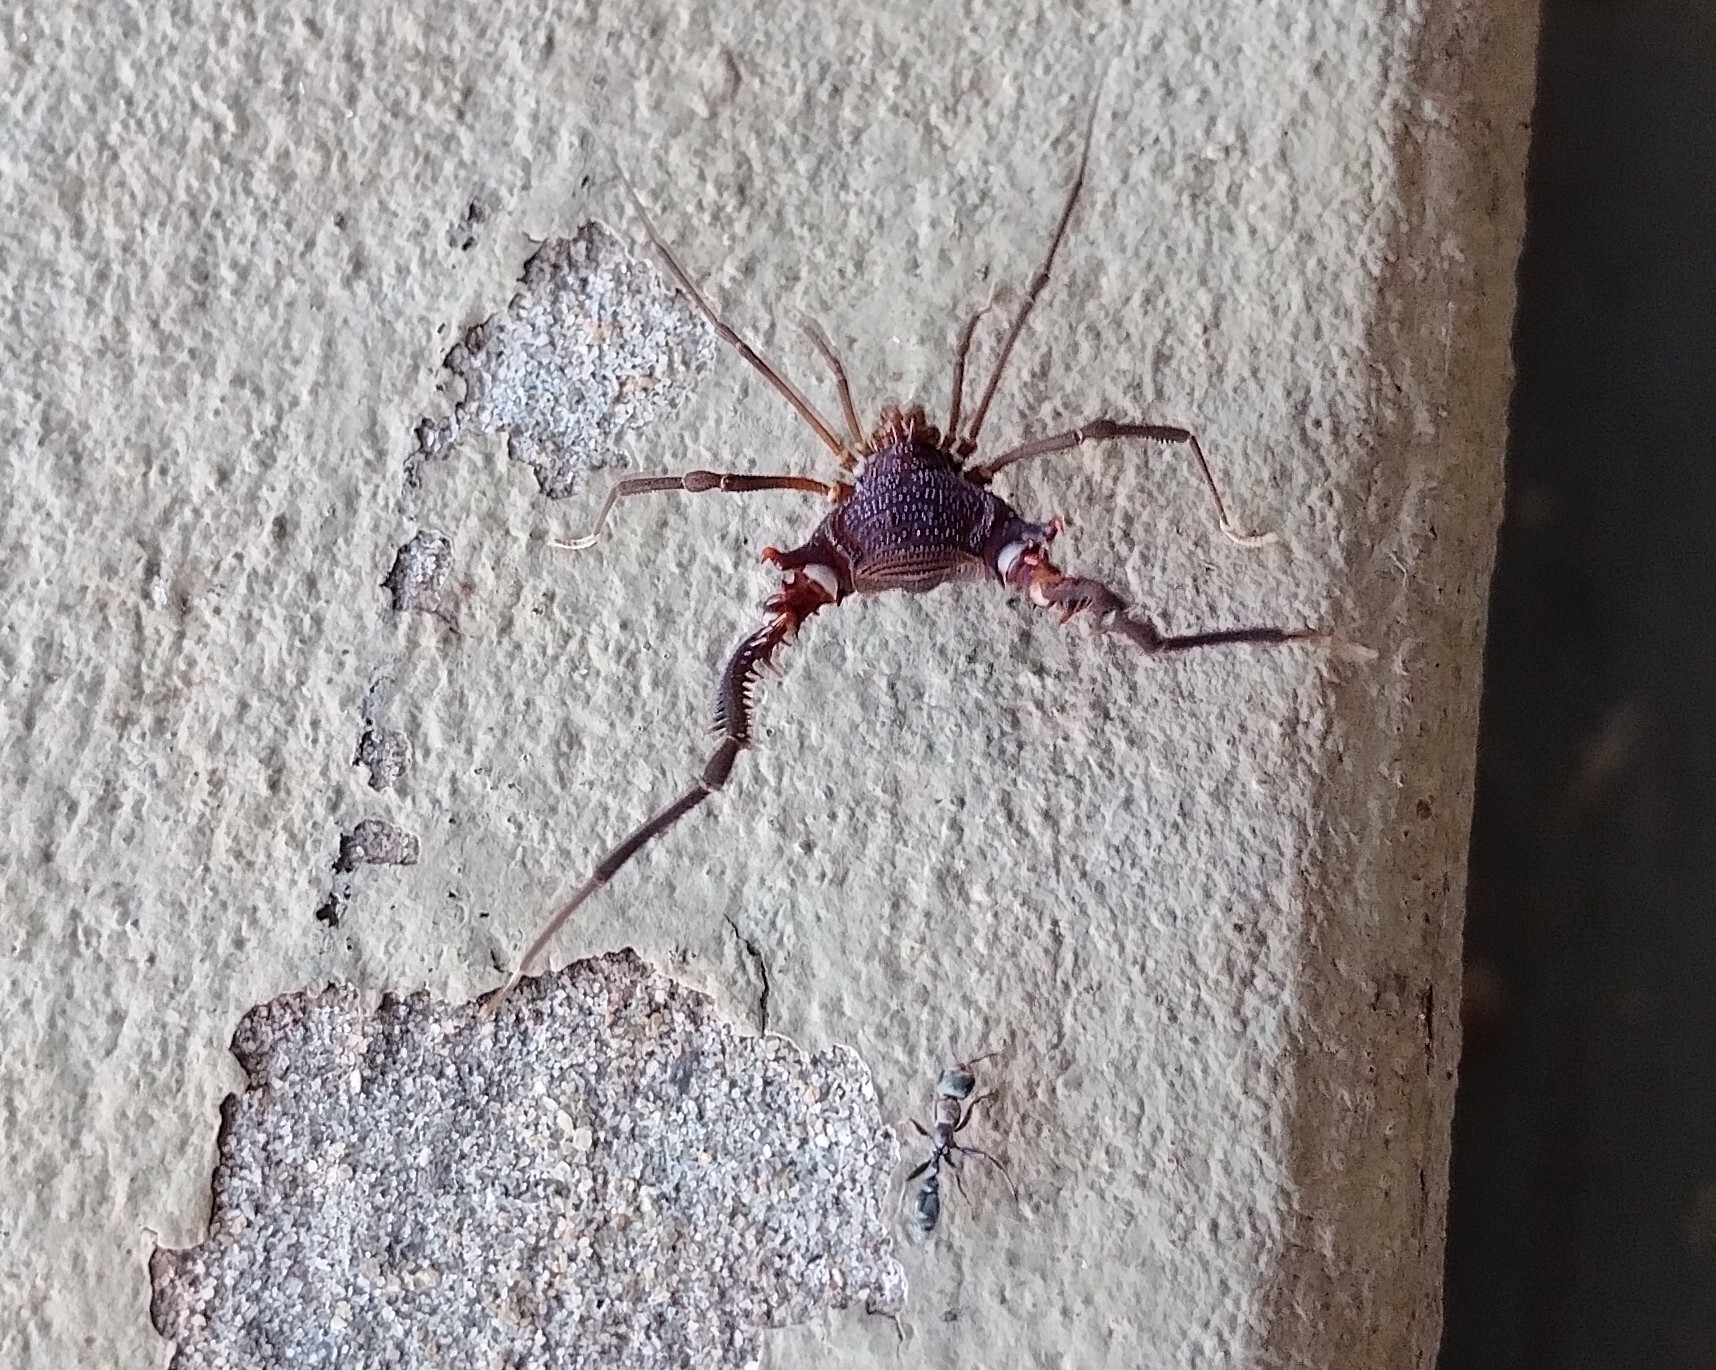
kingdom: Animalia
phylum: Arthropoda
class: Arachnida
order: Opiliones
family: Gonyleptidae
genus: Discocyrtanus
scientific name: Discocyrtanus pertenuis
